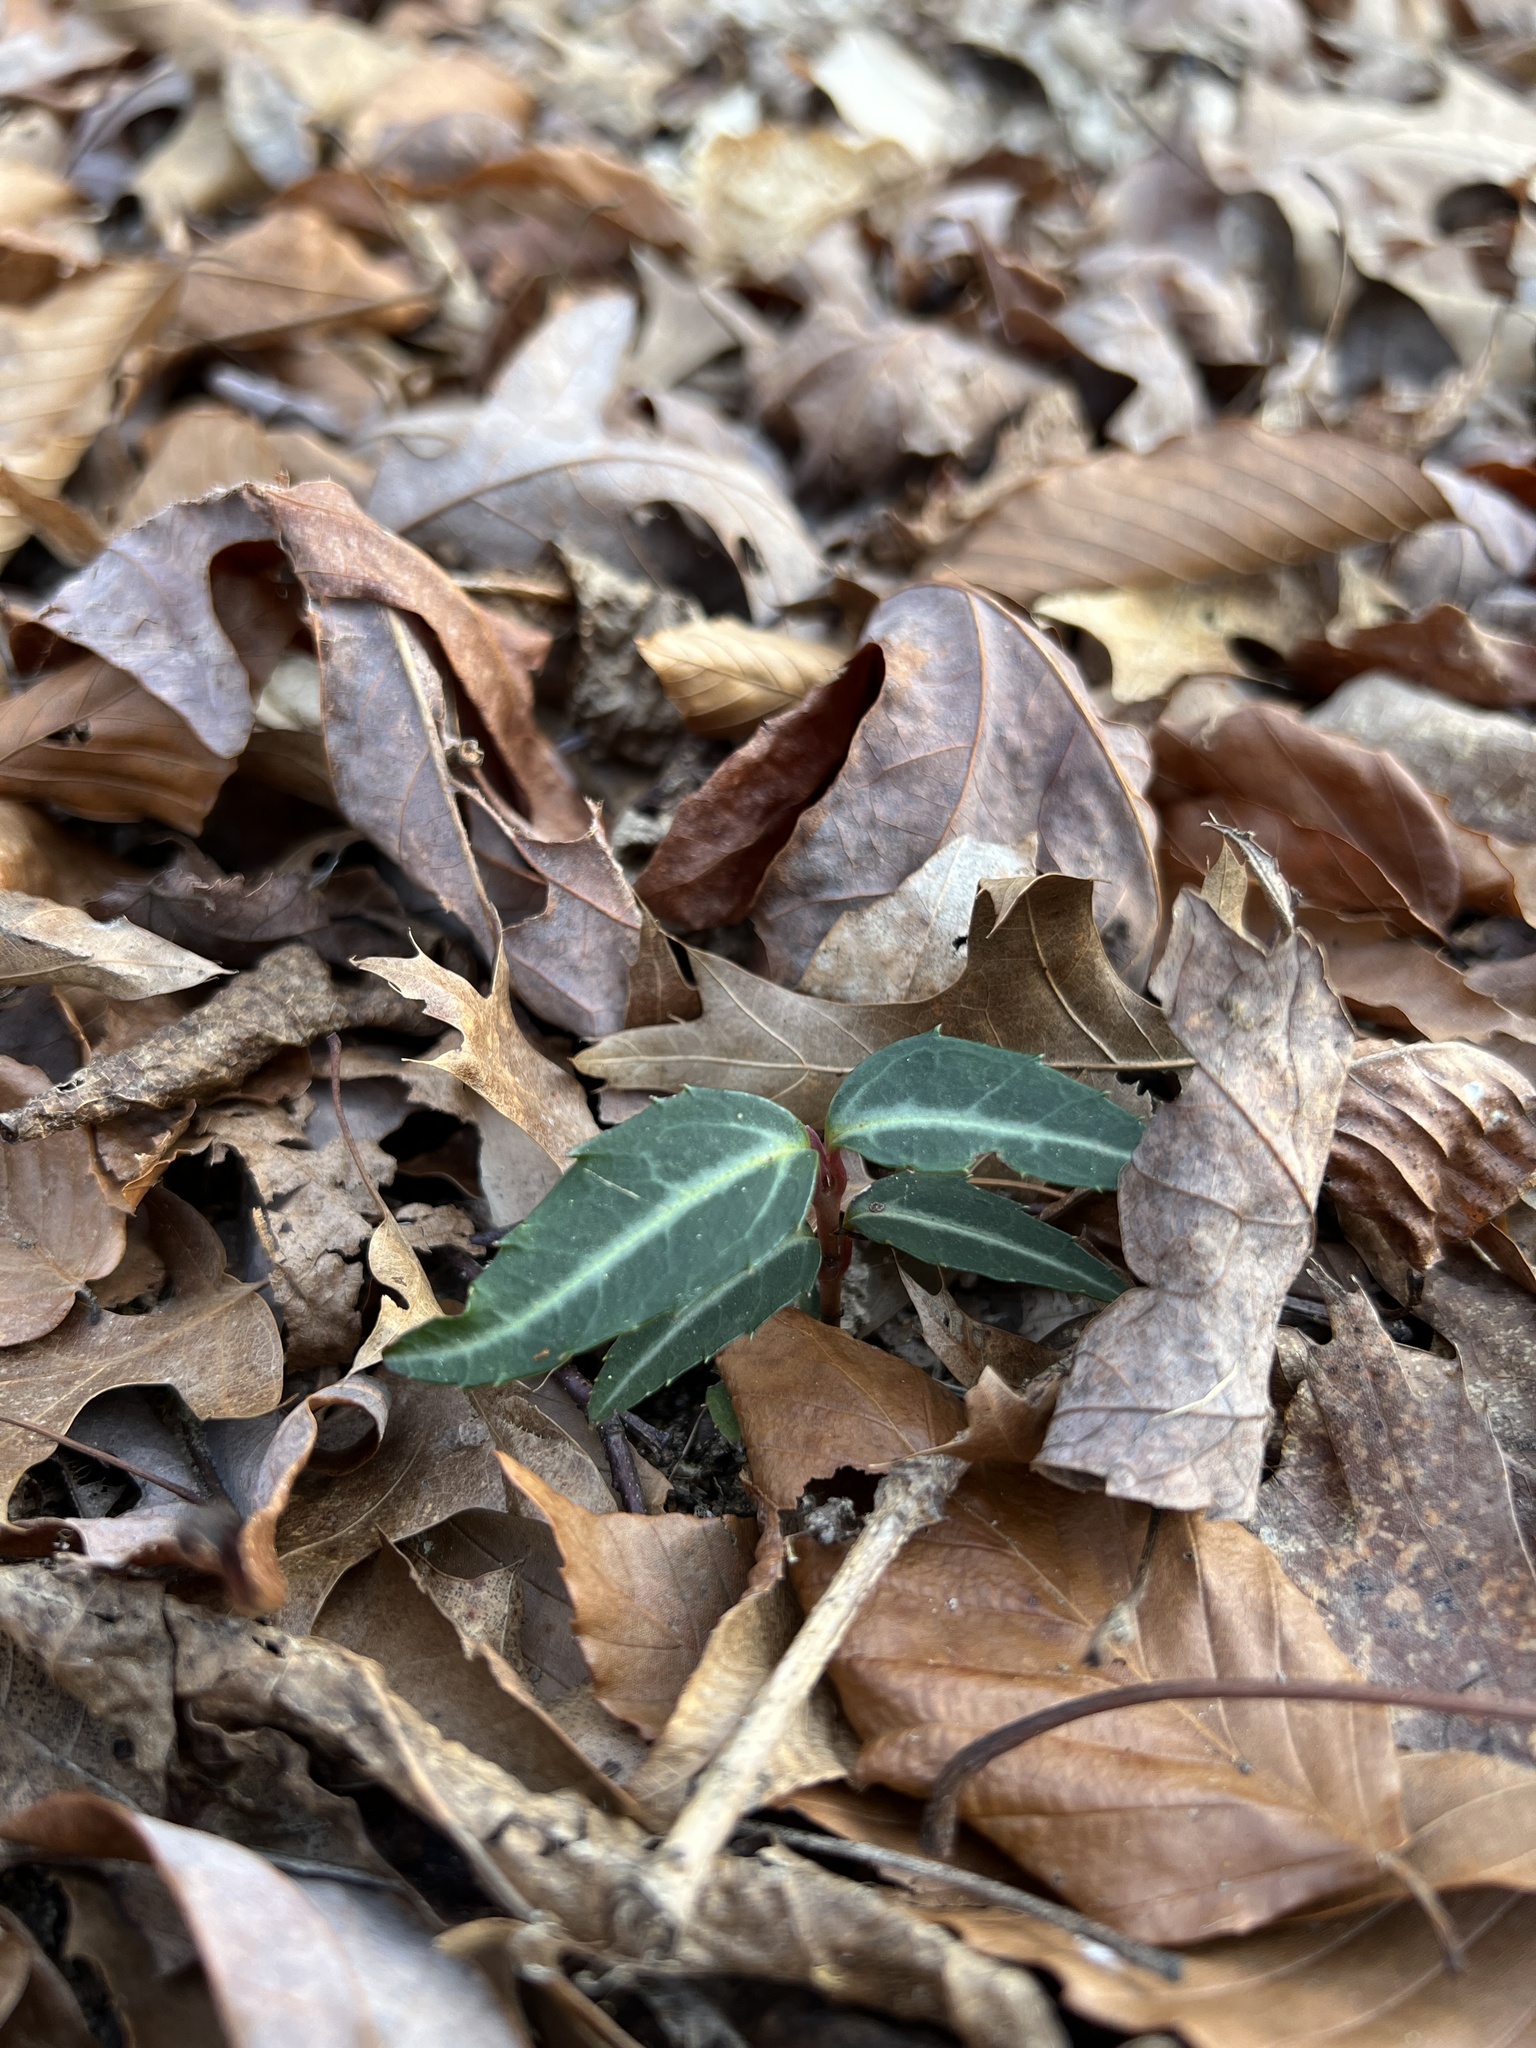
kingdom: Plantae
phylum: Tracheophyta
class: Magnoliopsida
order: Ericales
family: Ericaceae
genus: Chimaphila
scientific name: Chimaphila maculata
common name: Spotted pipsissewa
